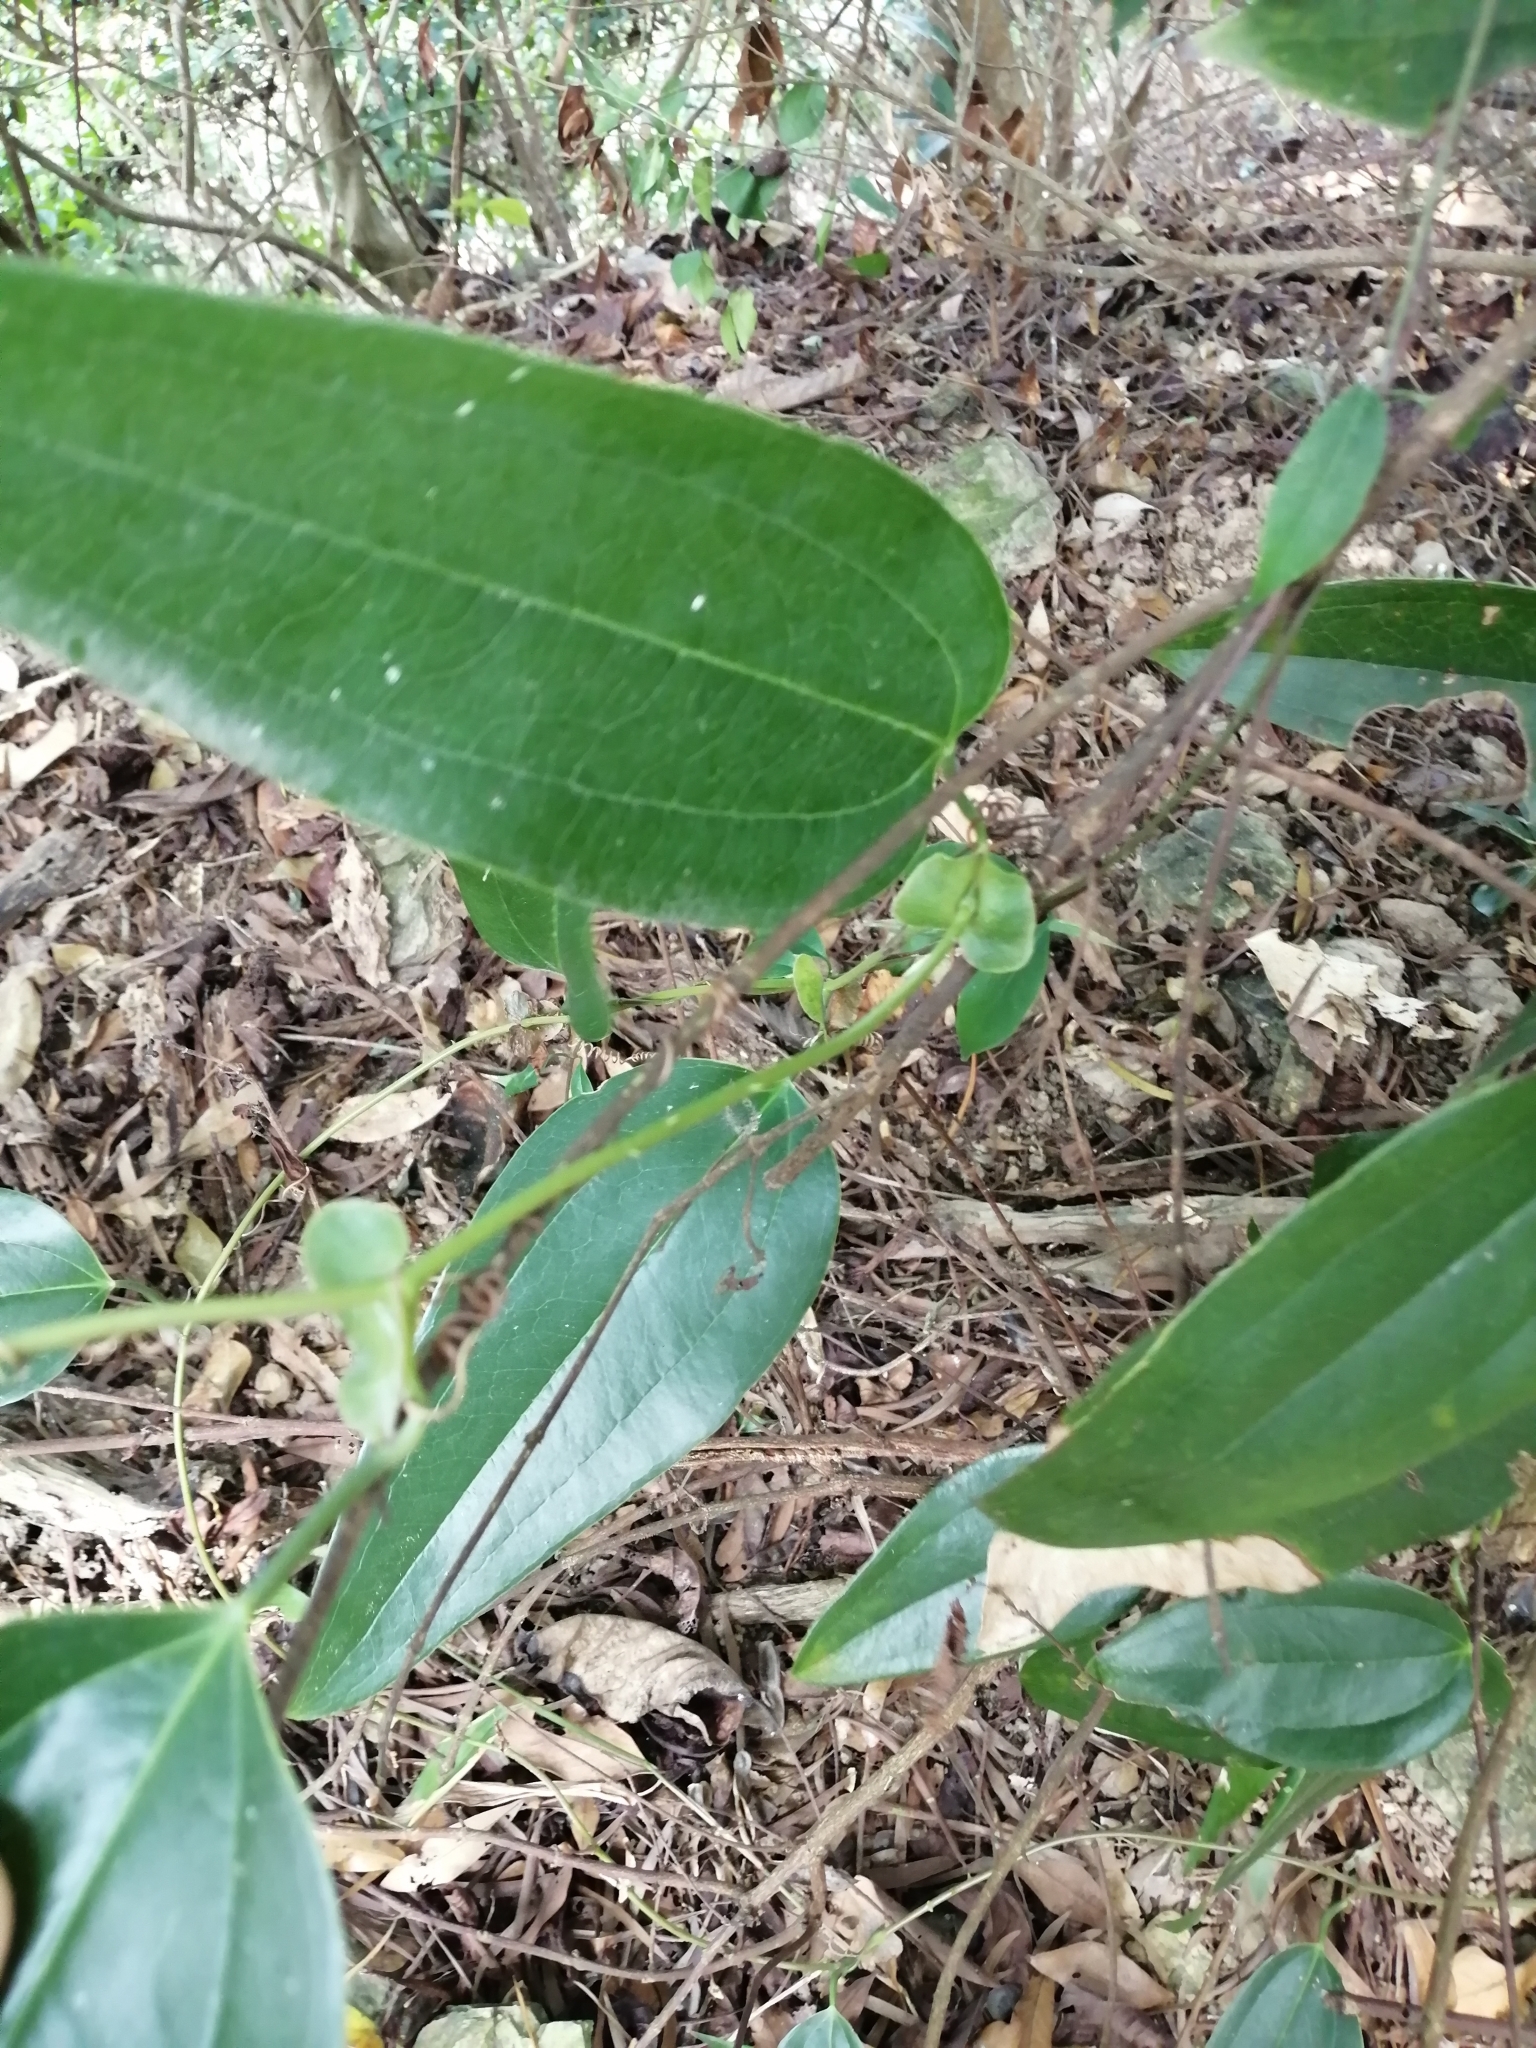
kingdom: Plantae
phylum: Tracheophyta
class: Liliopsida
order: Liliales
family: Smilacaceae
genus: Smilax
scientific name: Smilax ocreata
